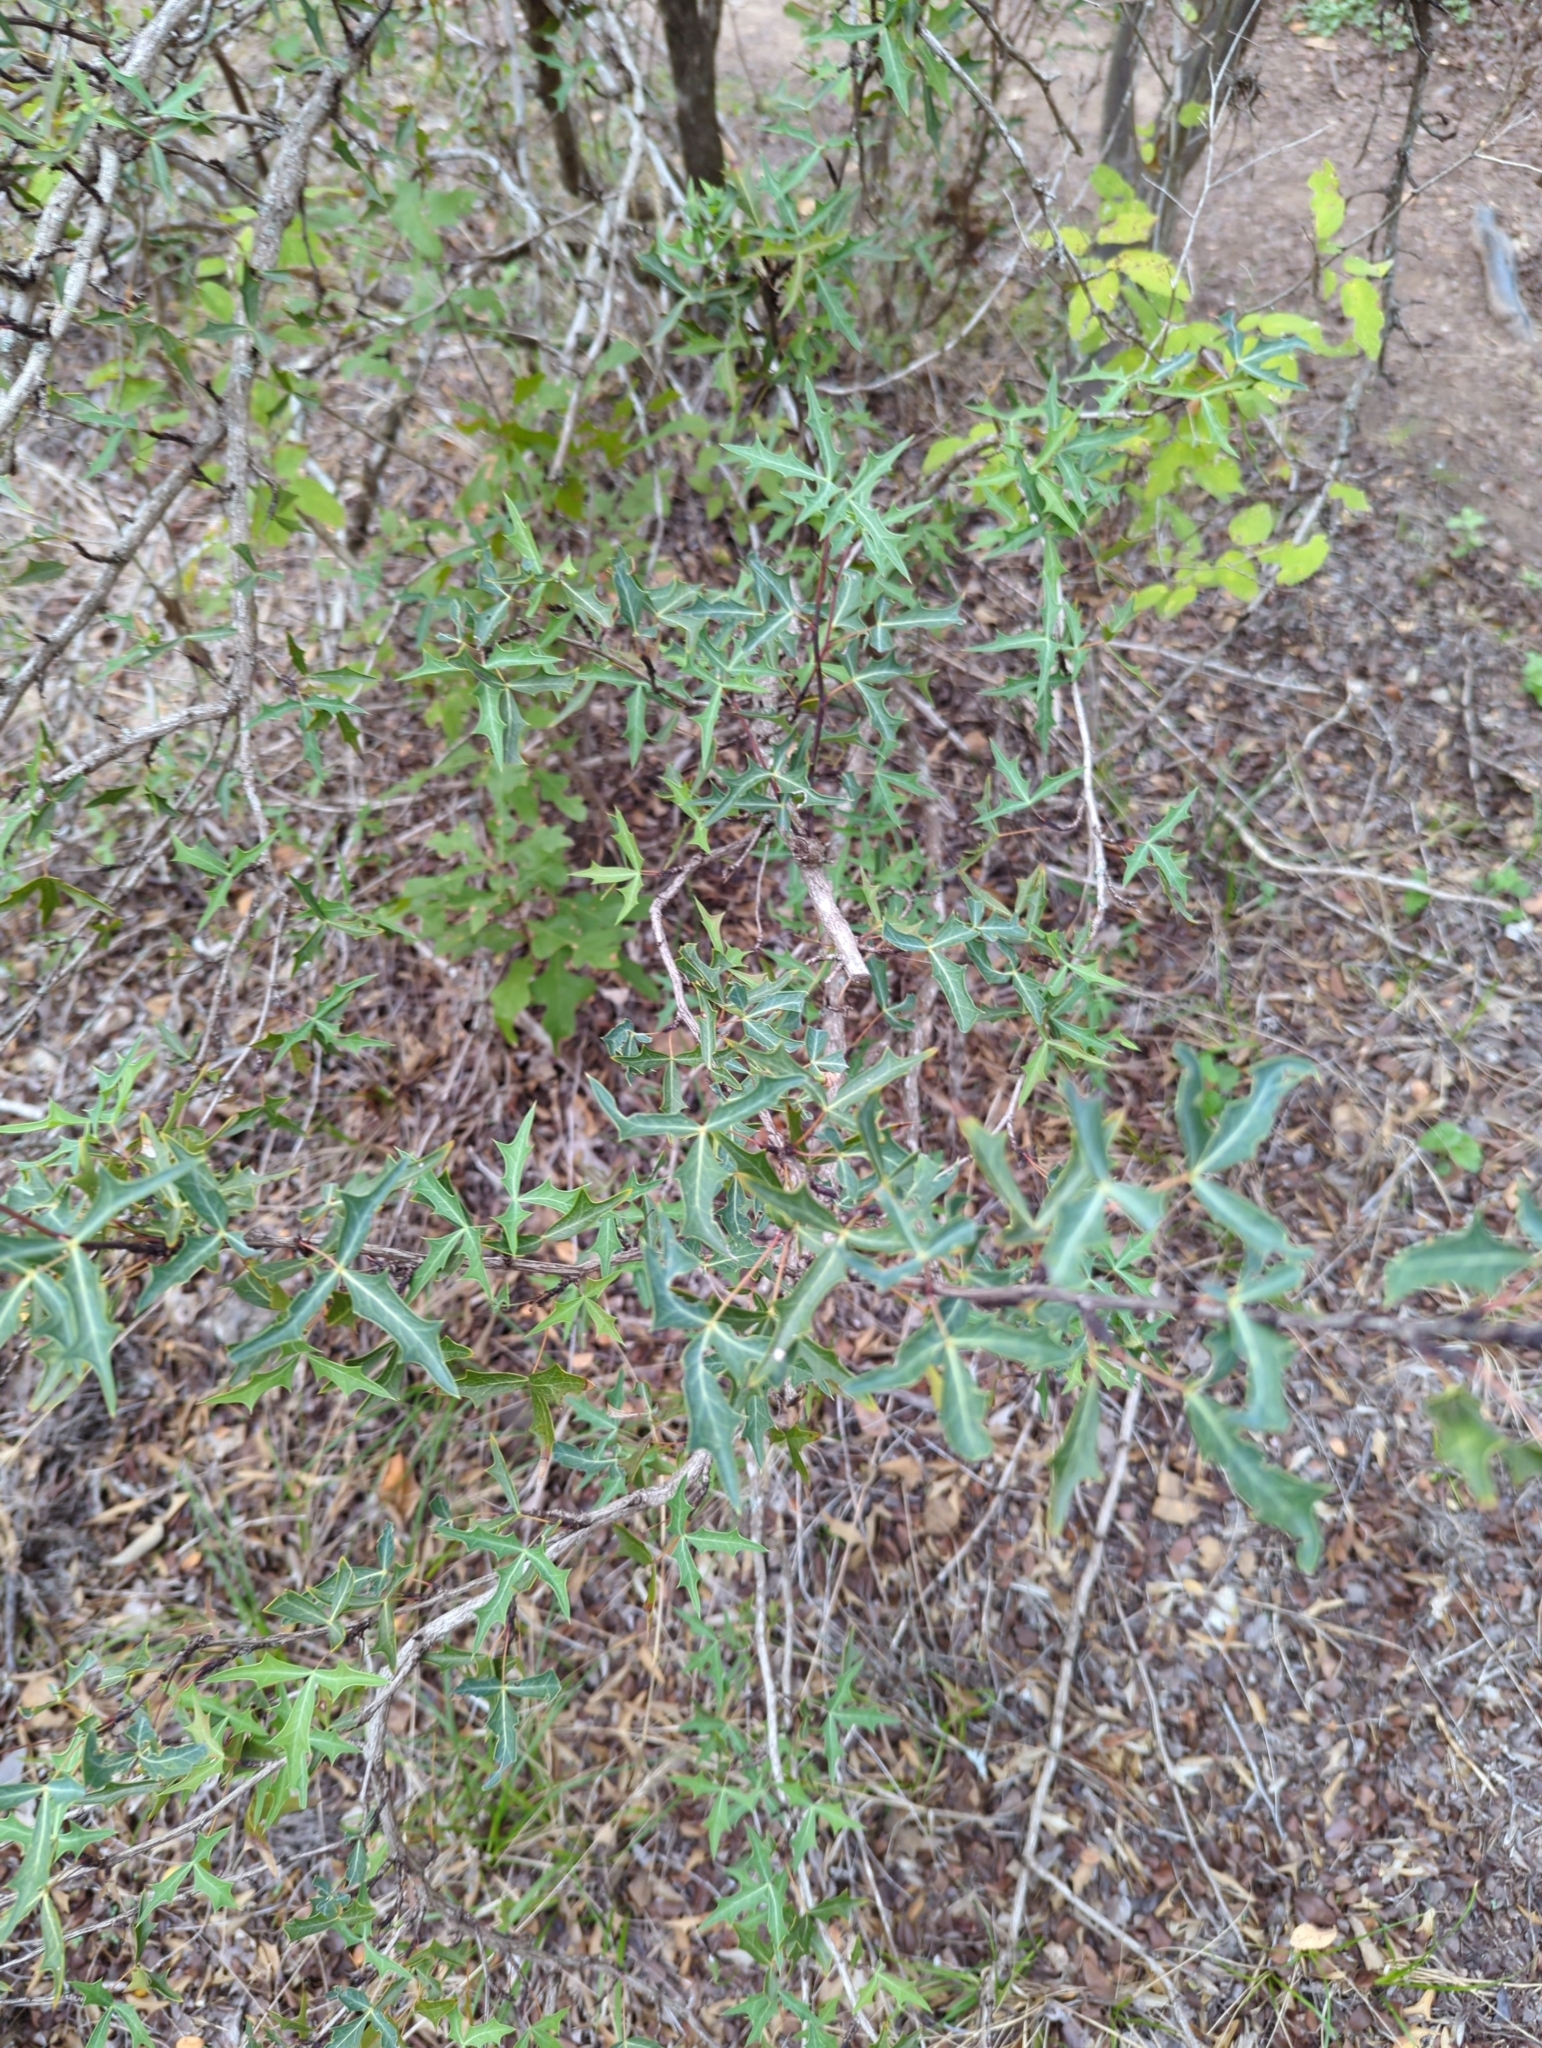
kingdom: Plantae
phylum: Tracheophyta
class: Magnoliopsida
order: Ranunculales
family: Berberidaceae
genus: Alloberberis
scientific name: Alloberberis trifoliolata
